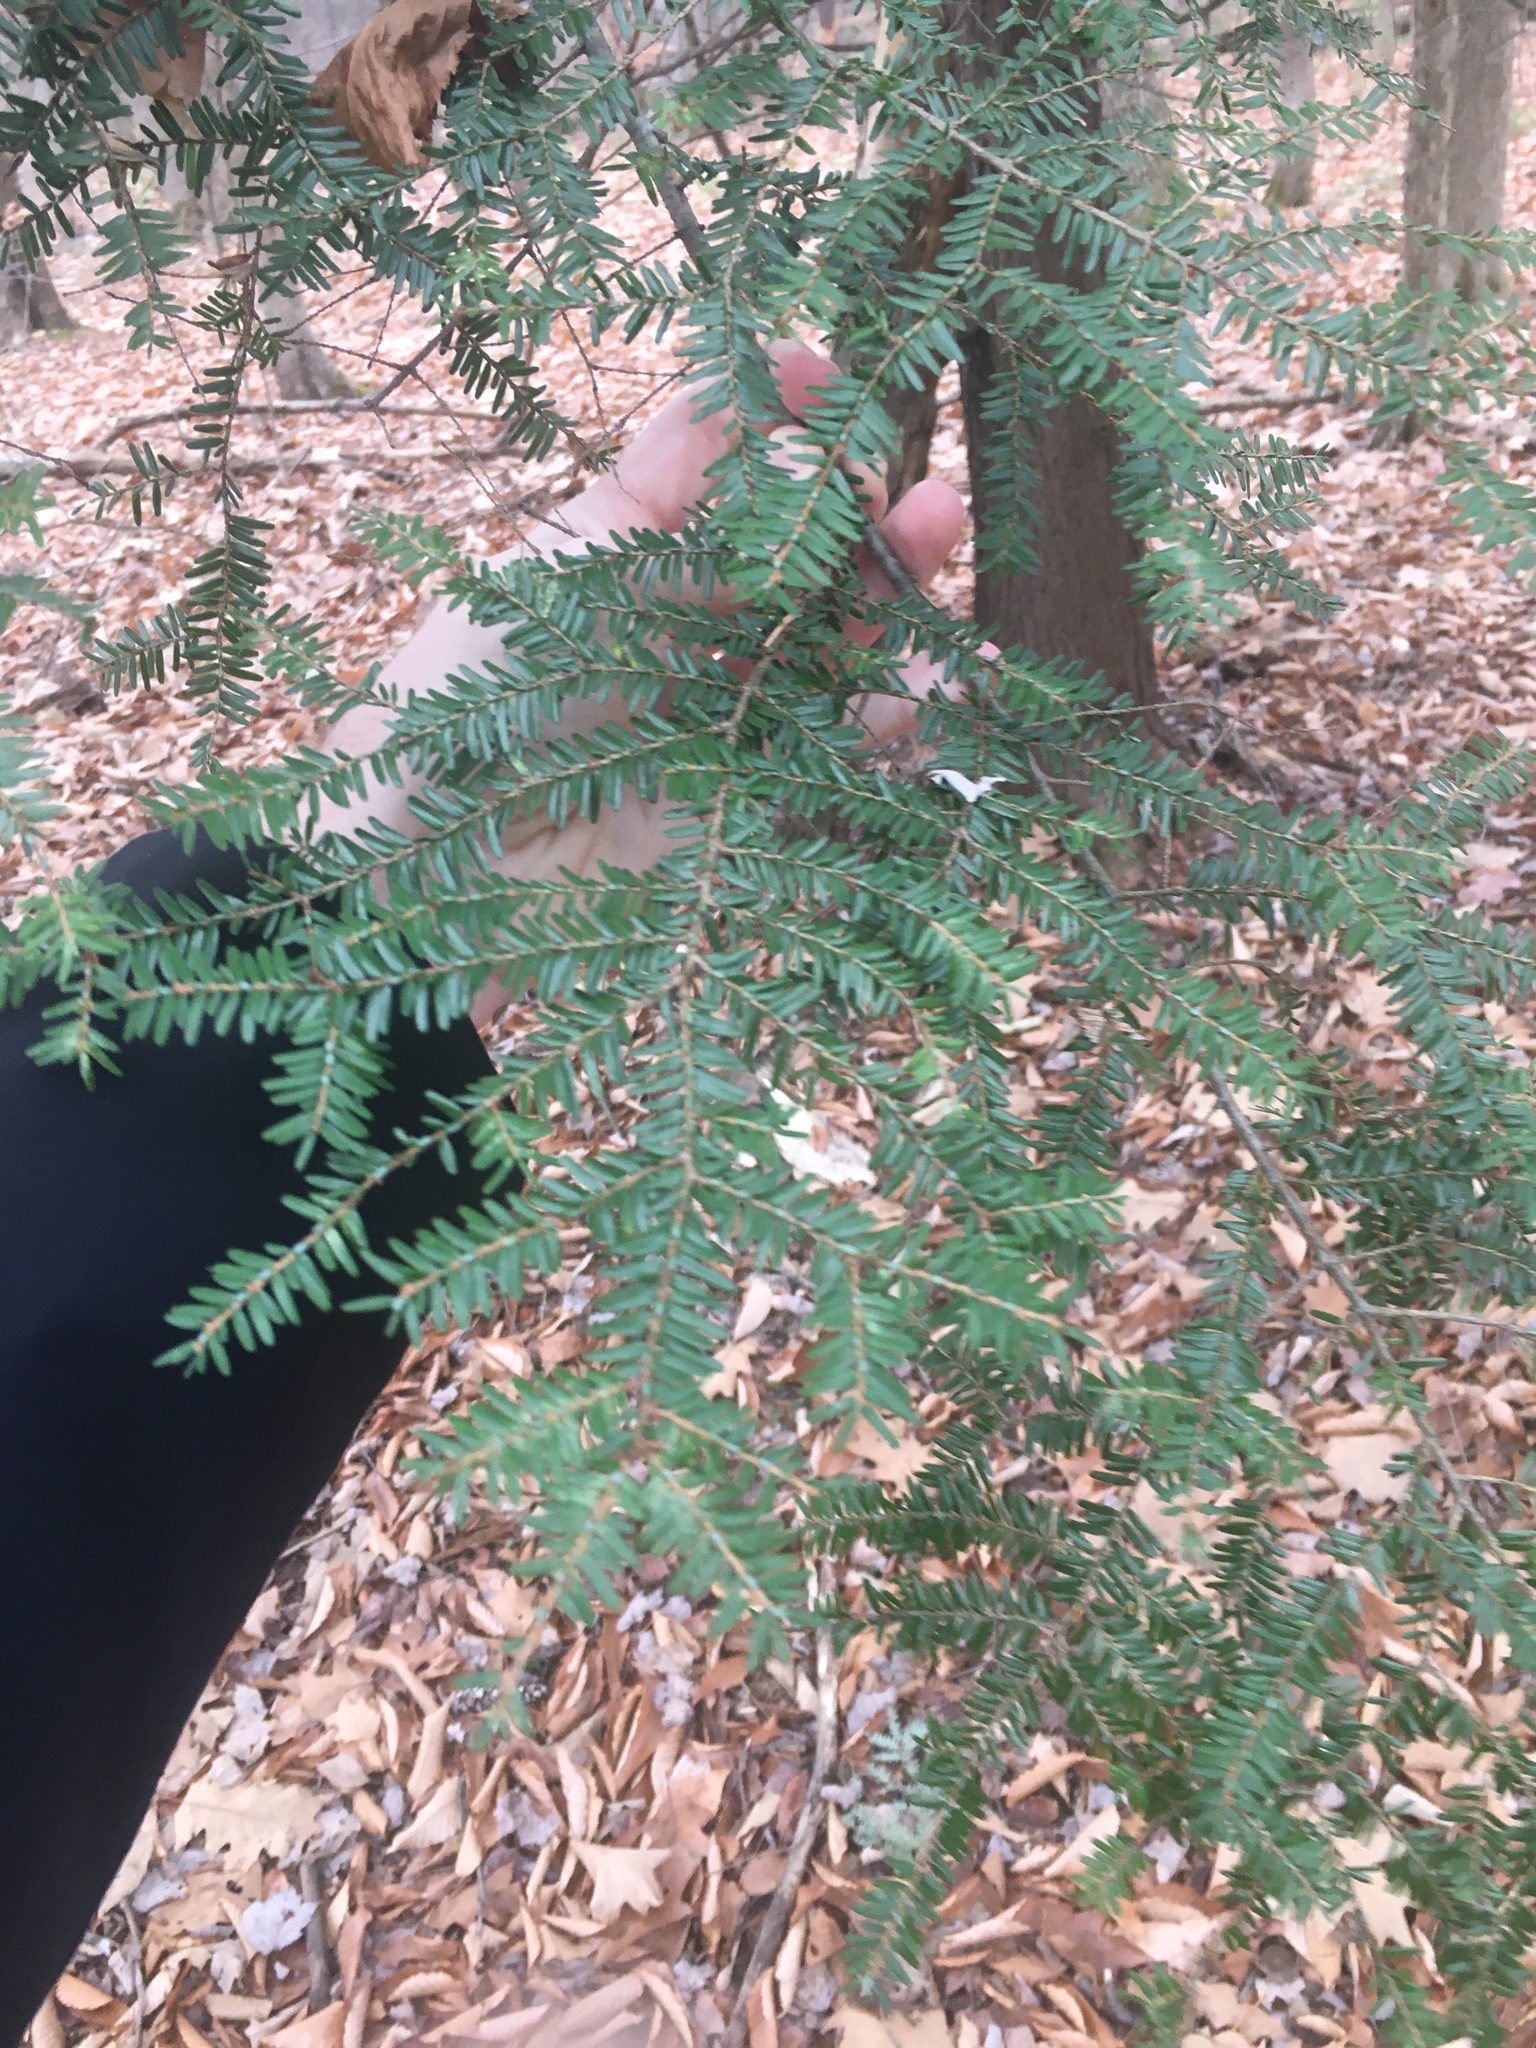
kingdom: Plantae
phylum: Tracheophyta
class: Pinopsida
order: Pinales
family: Pinaceae
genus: Tsuga
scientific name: Tsuga canadensis
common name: Eastern hemlock
